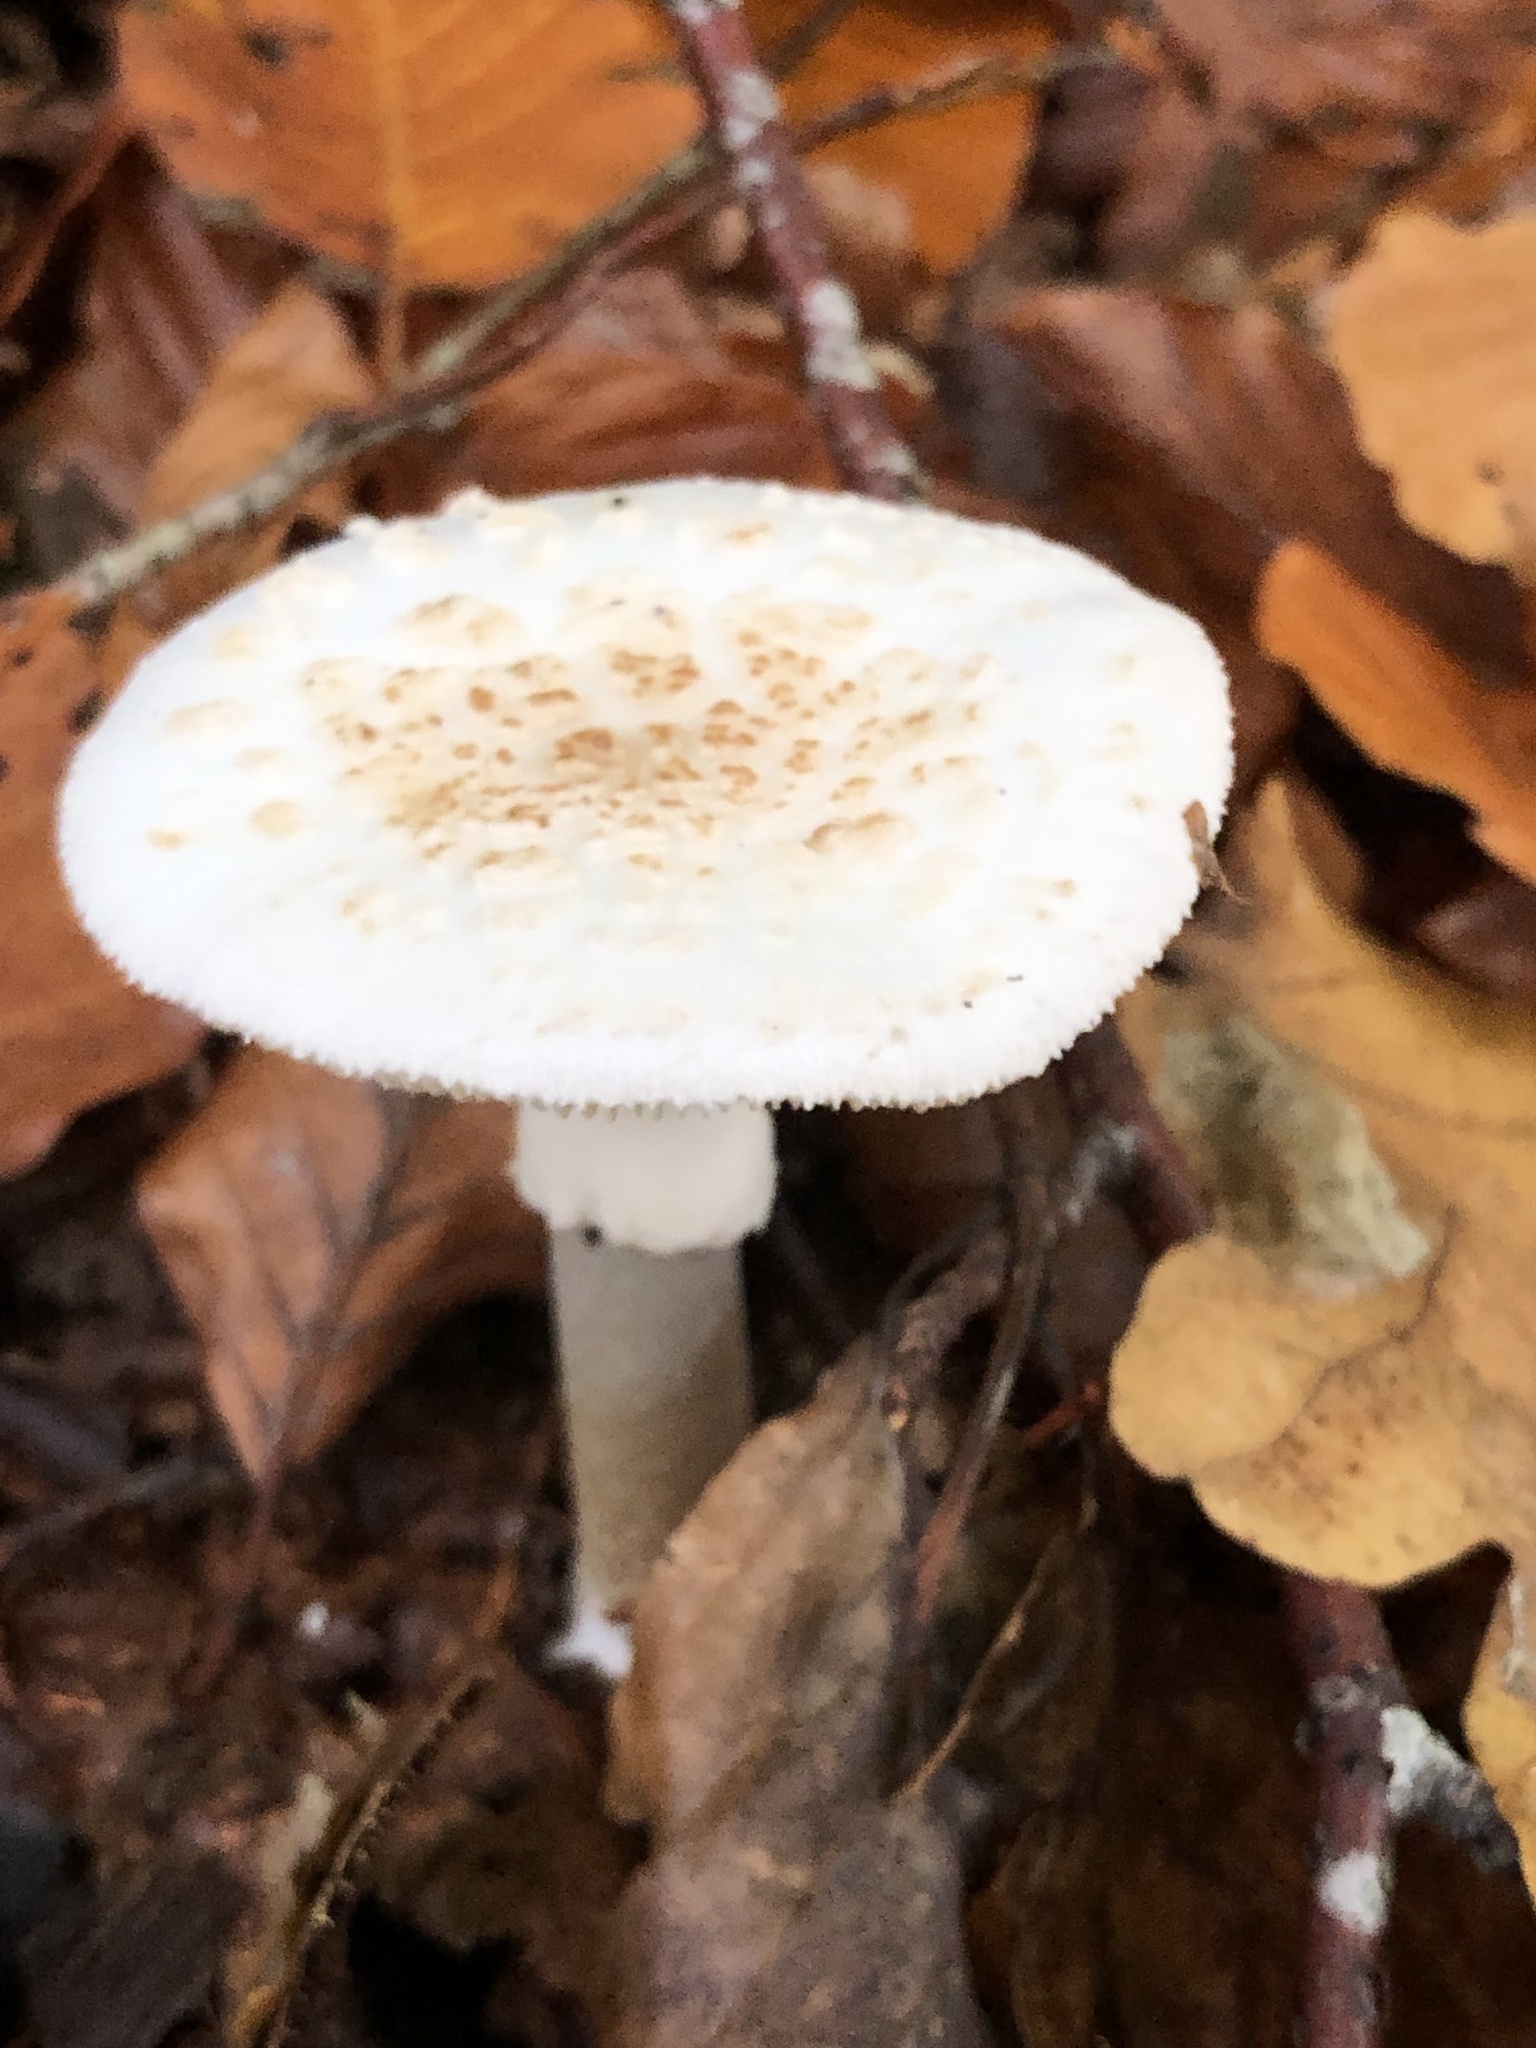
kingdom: Fungi
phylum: Basidiomycota
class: Agaricomycetes
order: Agaricales
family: Amanitaceae
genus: Amanita
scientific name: Amanita citrina
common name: False death-cap
